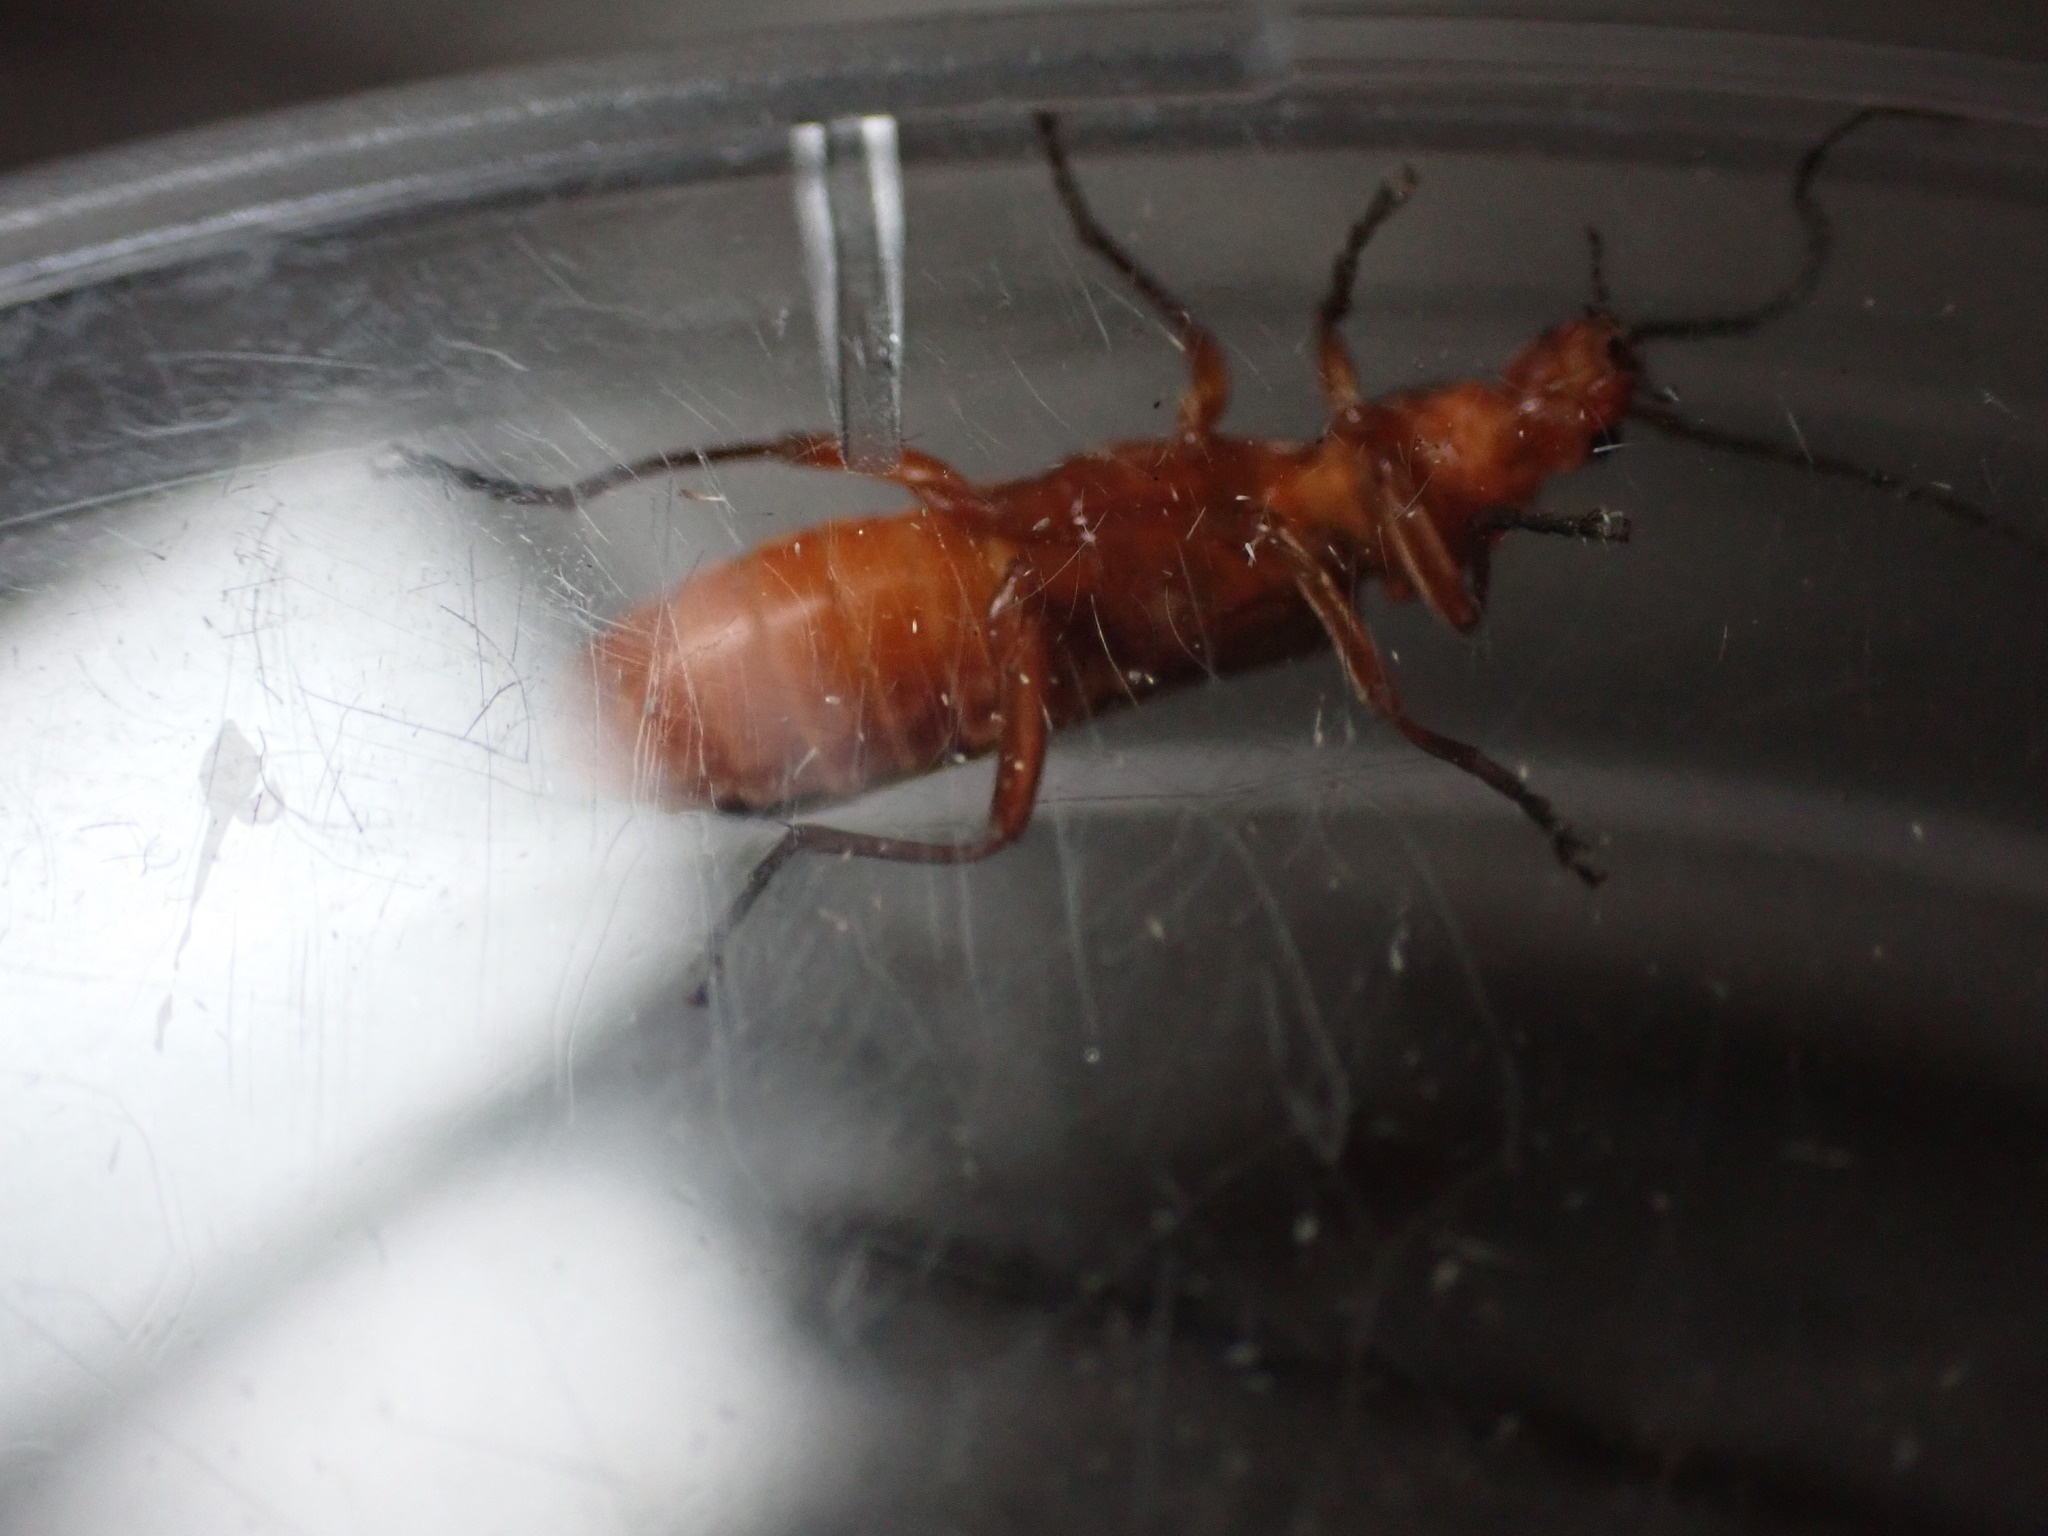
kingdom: Animalia
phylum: Arthropoda
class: Insecta
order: Coleoptera
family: Cantharidae
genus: Rhagonycha
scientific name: Rhagonycha fulva
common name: Common red soldier beetle
